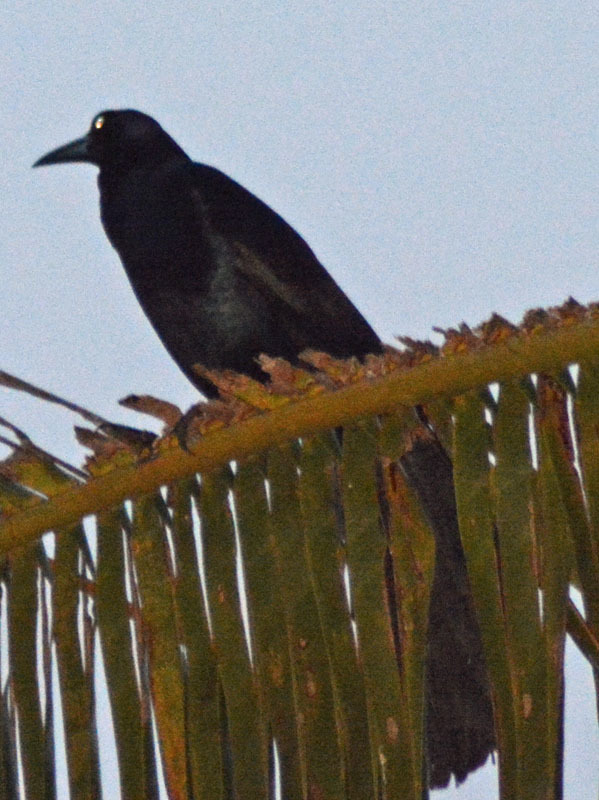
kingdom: Animalia
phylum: Chordata
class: Aves
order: Passeriformes
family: Icteridae
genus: Quiscalus
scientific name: Quiscalus mexicanus
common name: Great-tailed grackle
